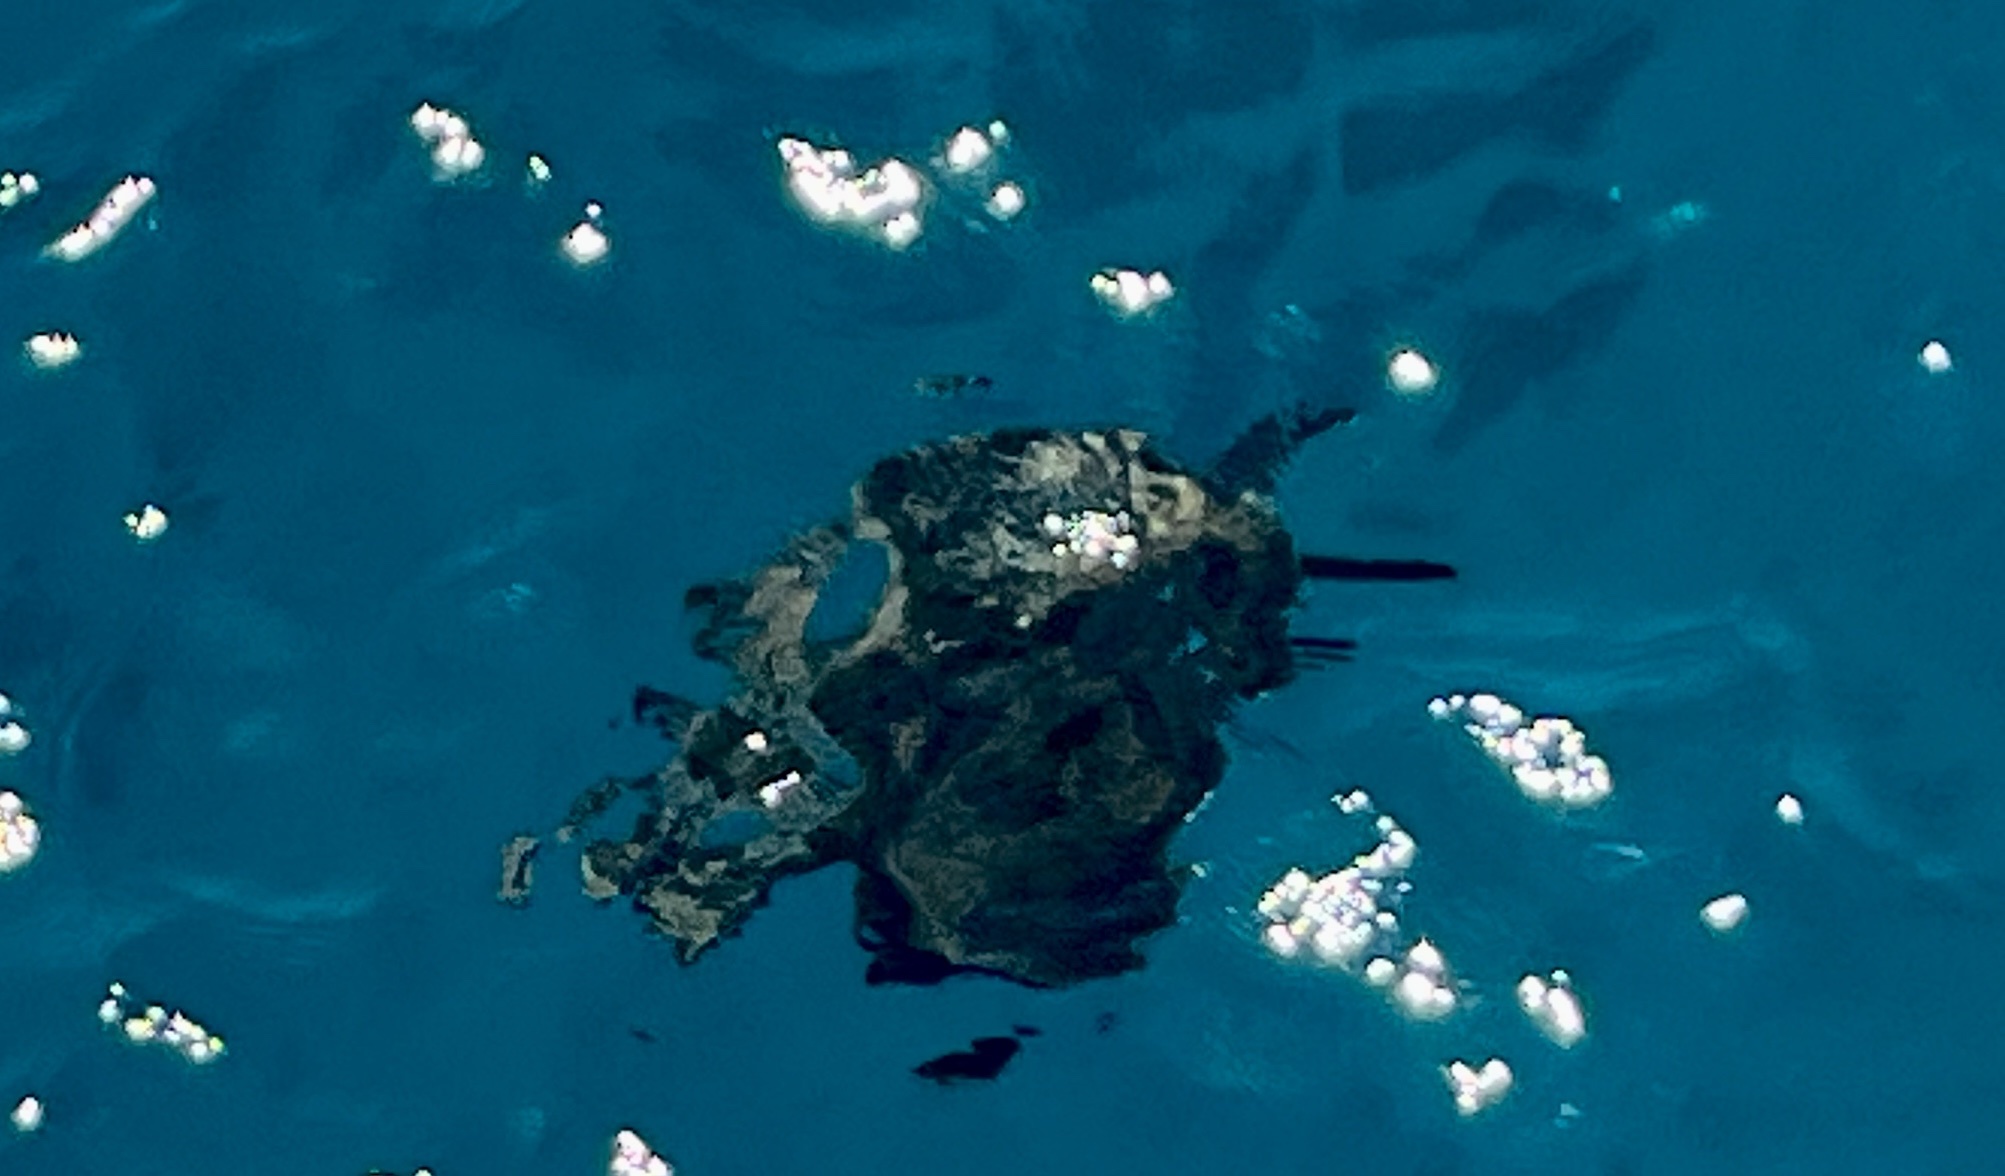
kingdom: Animalia
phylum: Chordata
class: Testudines
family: Cheloniidae
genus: Caretta
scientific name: Caretta caretta
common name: Loggerhead sea turtle
